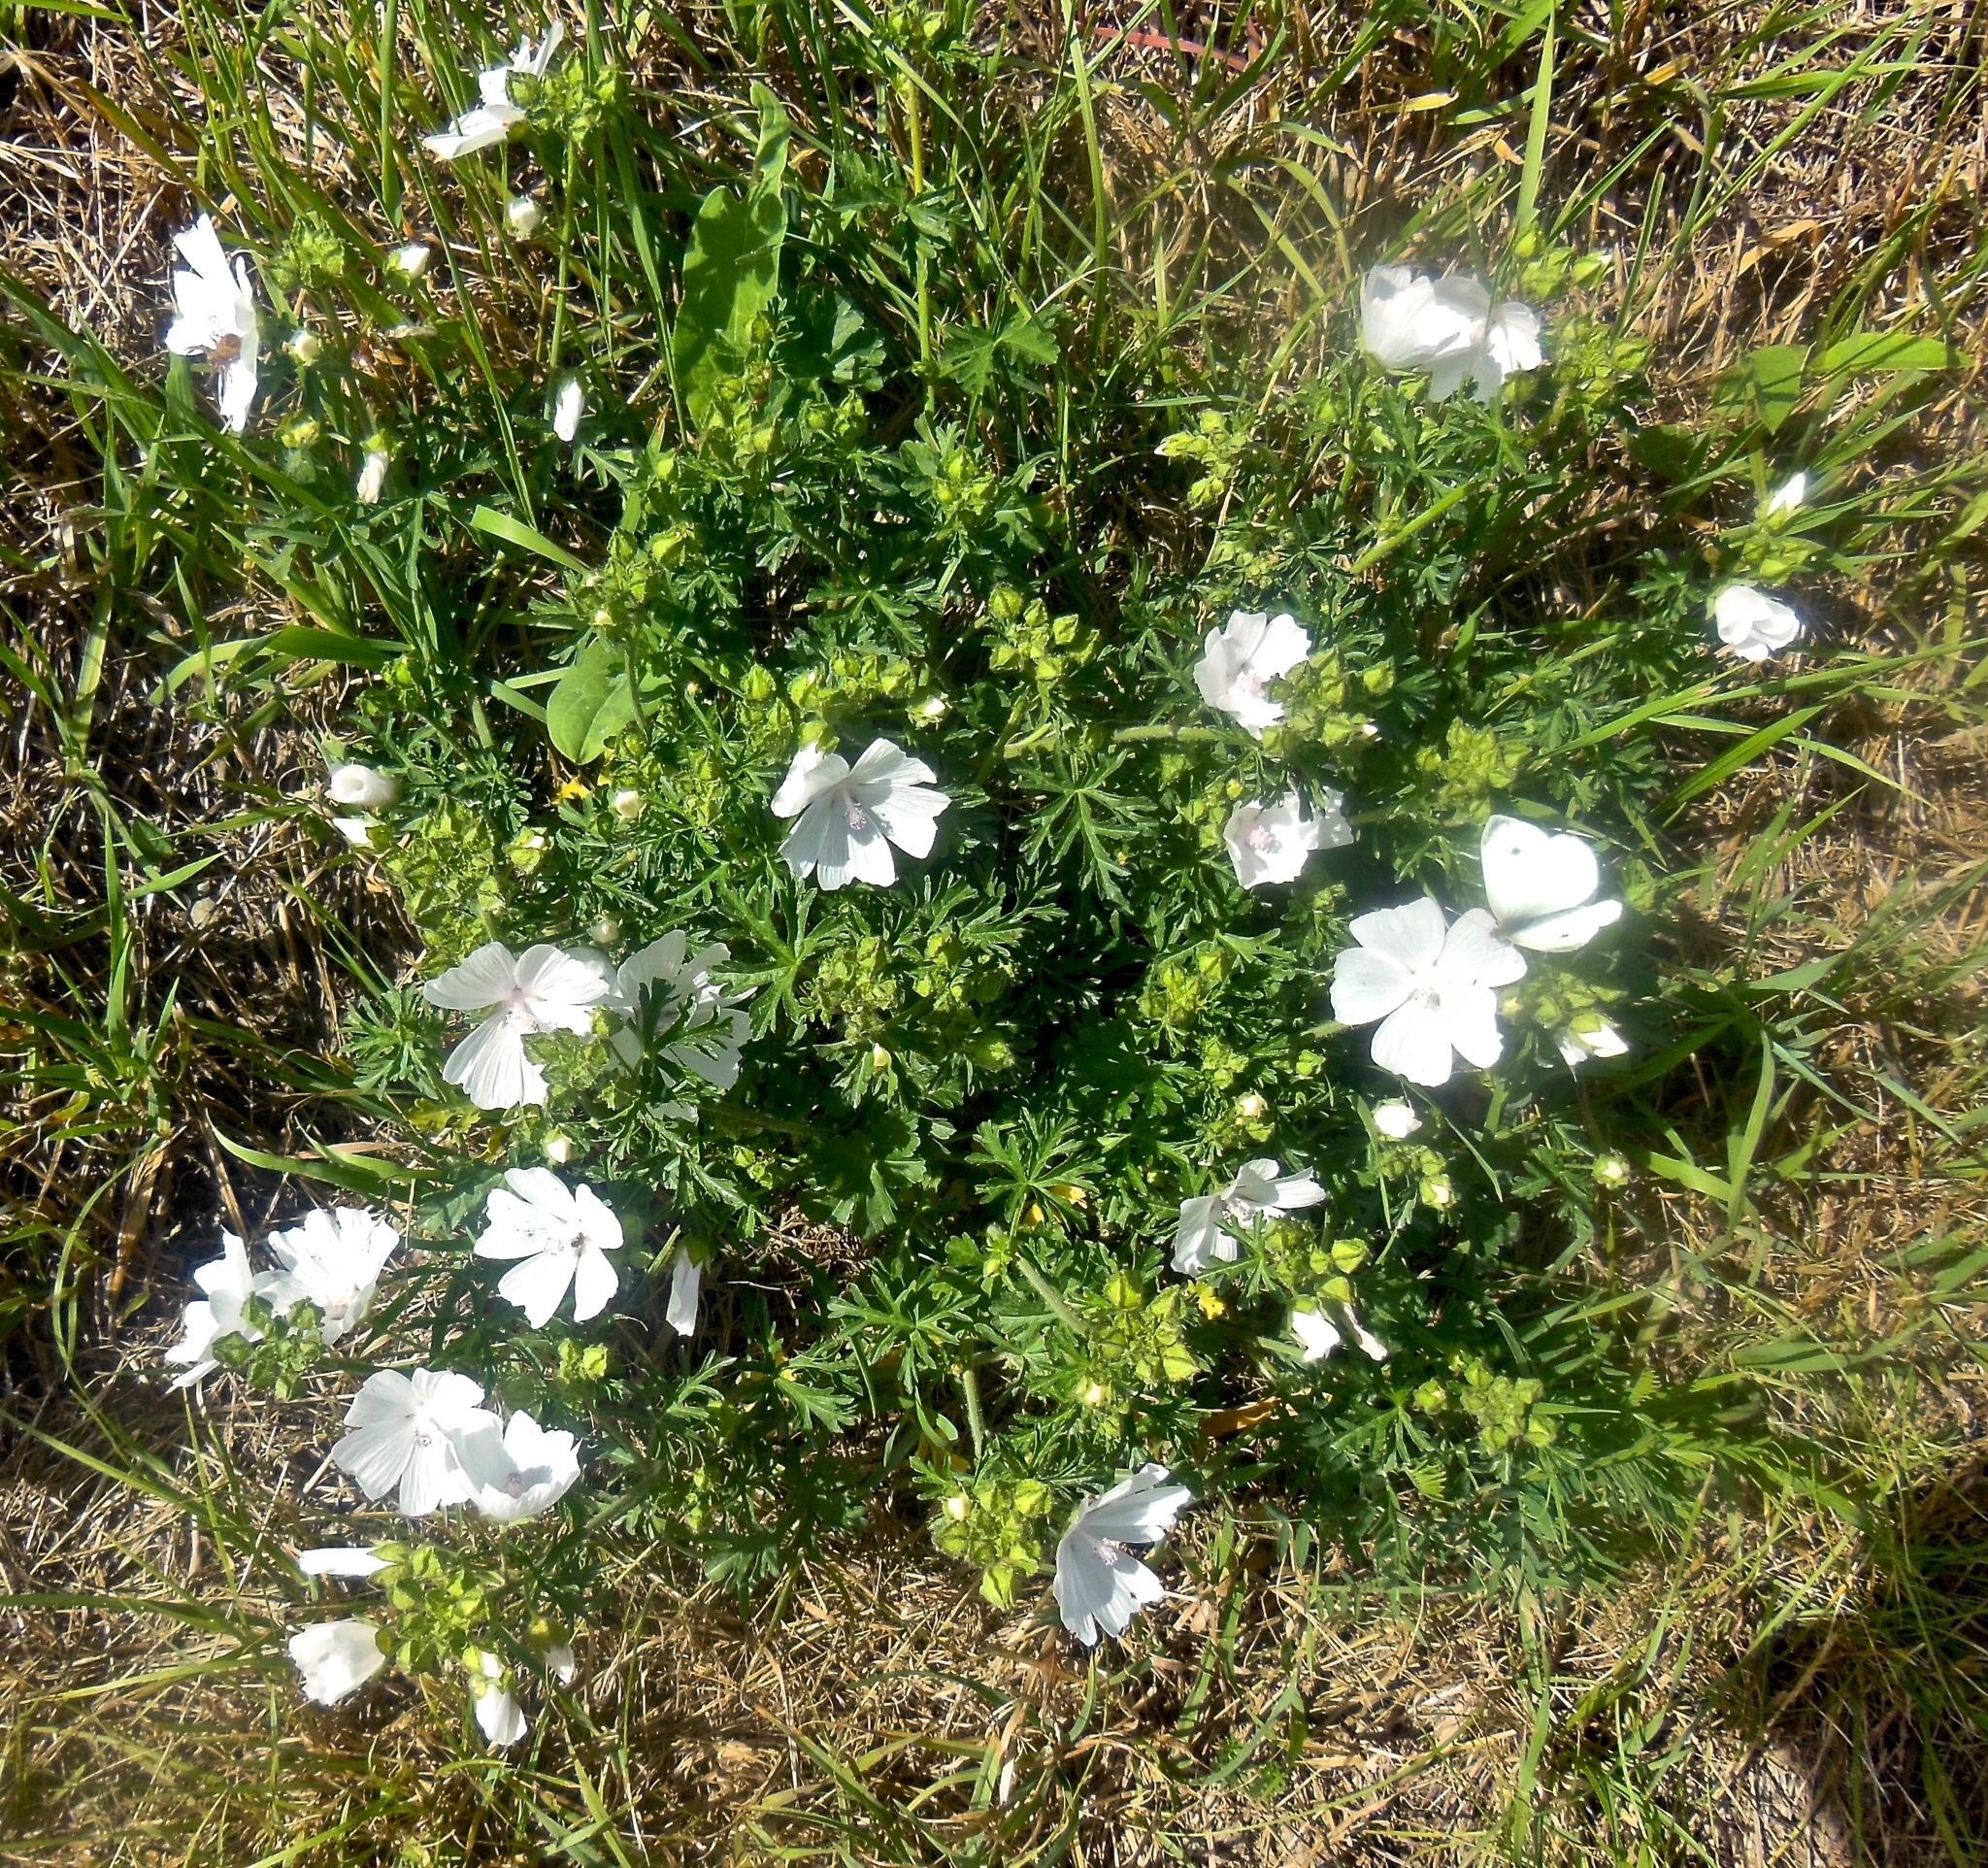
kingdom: Plantae
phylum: Tracheophyta
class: Magnoliopsida
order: Malvales
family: Malvaceae
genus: Malva
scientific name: Malva moschata
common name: Musk mallow
